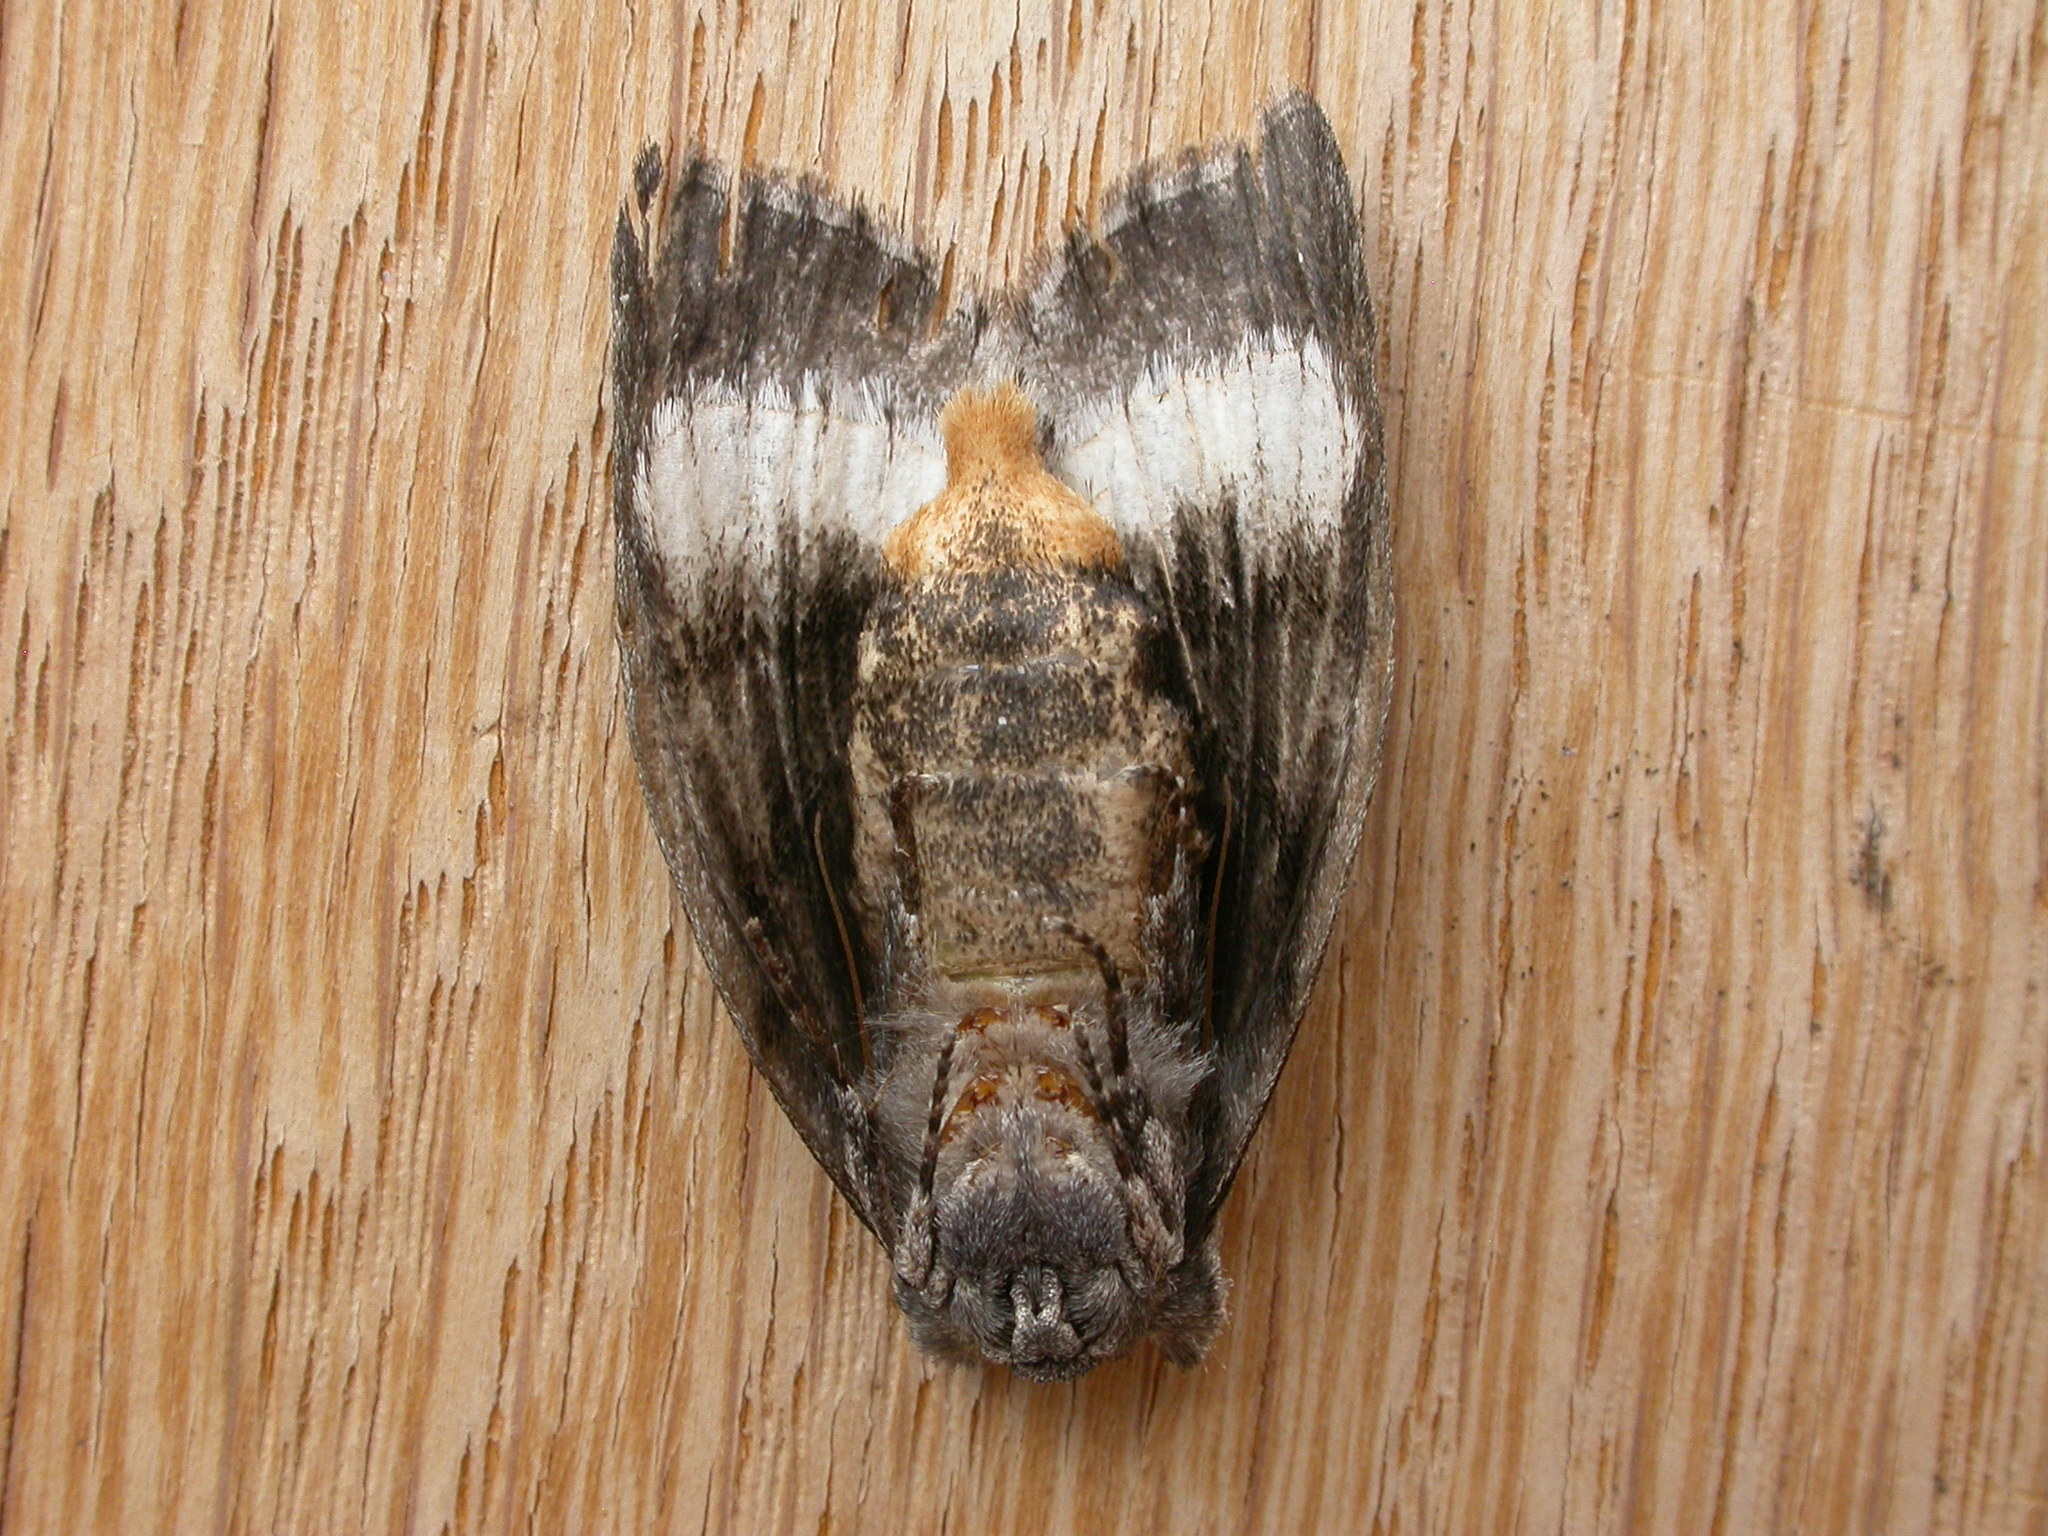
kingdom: Animalia
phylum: Arthropoda
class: Insecta
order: Lepidoptera
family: Oenosandridae
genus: Discophlebia
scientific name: Discophlebia catocalina
